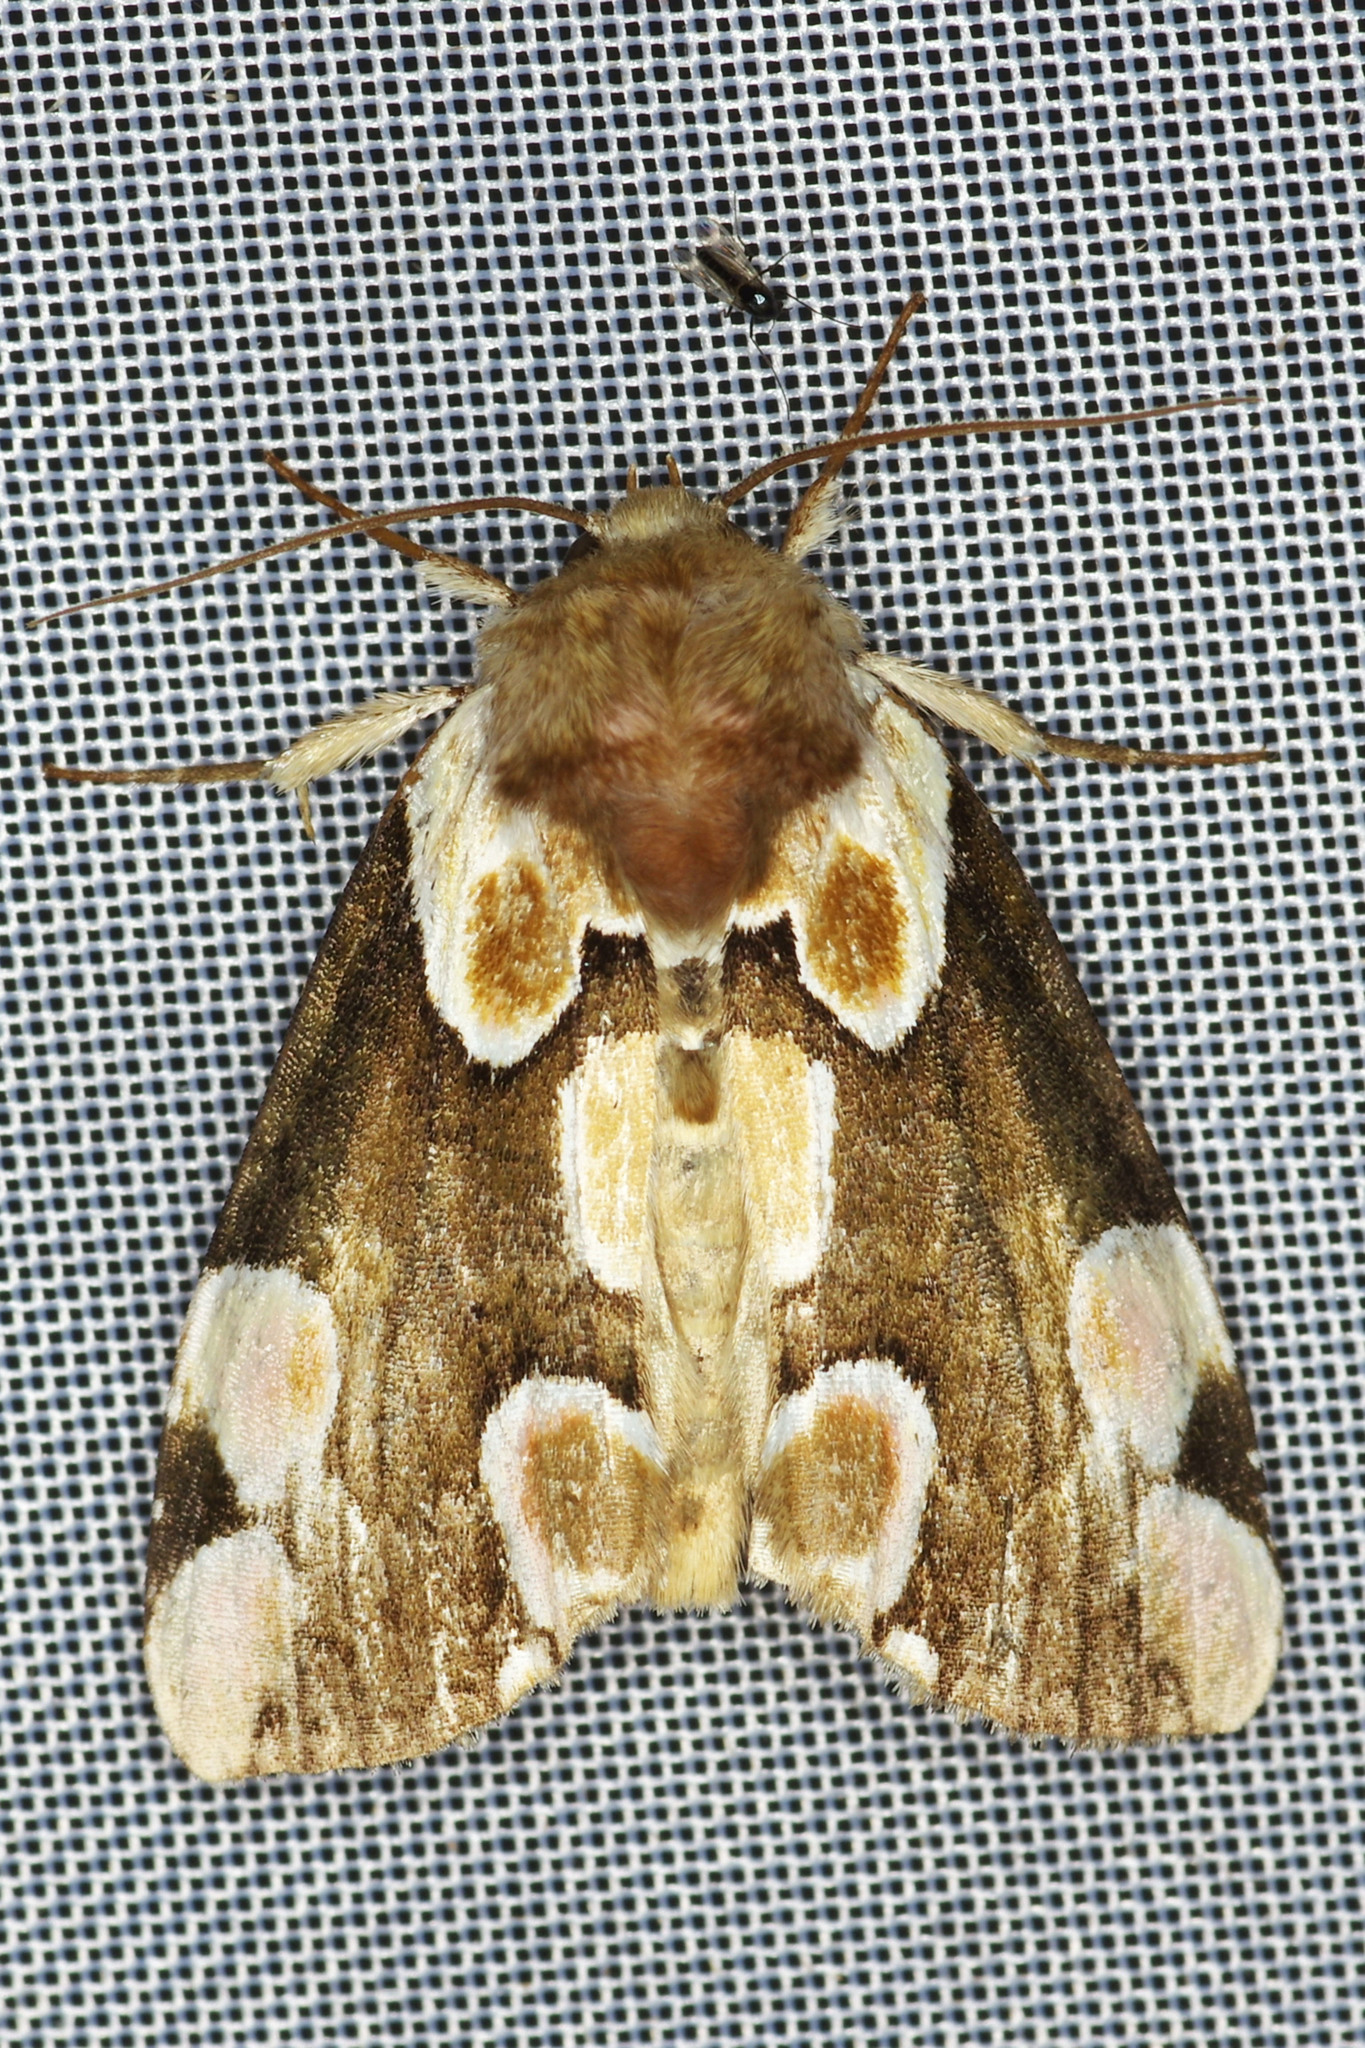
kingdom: Animalia
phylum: Arthropoda
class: Insecta
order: Lepidoptera
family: Drepanidae
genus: Thyatira
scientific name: Thyatira batis
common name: Peach blossom
